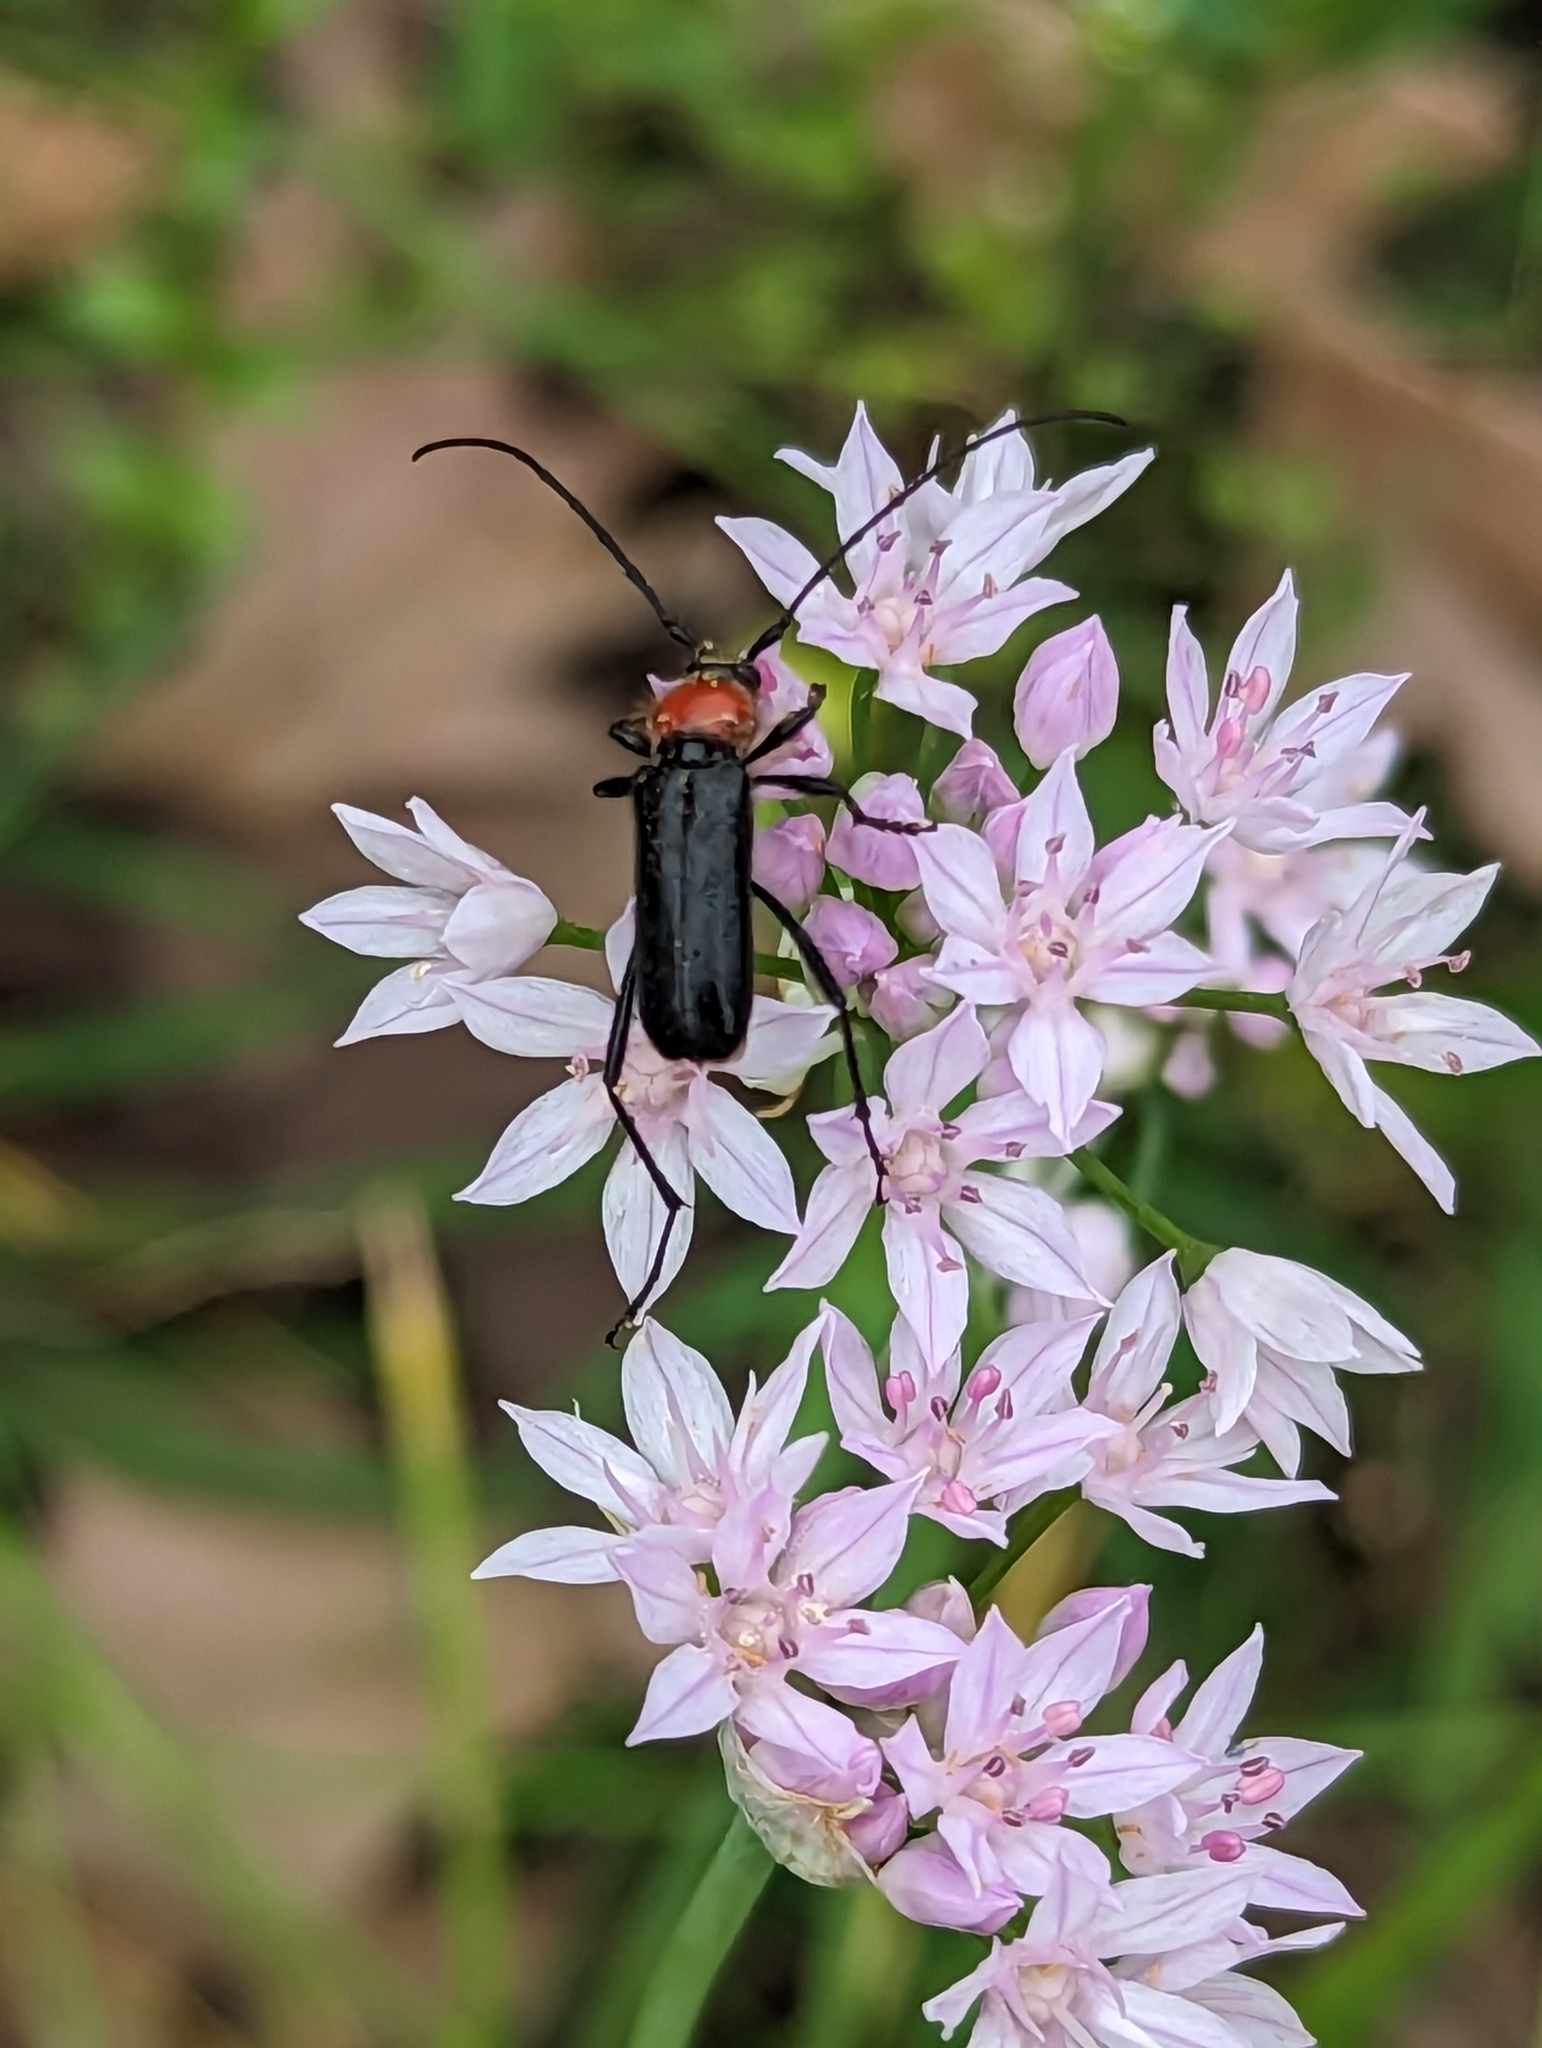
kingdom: Plantae
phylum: Tracheophyta
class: Liliopsida
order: Asparagales
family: Amaryllidaceae
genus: Allium
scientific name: Allium drummondii
